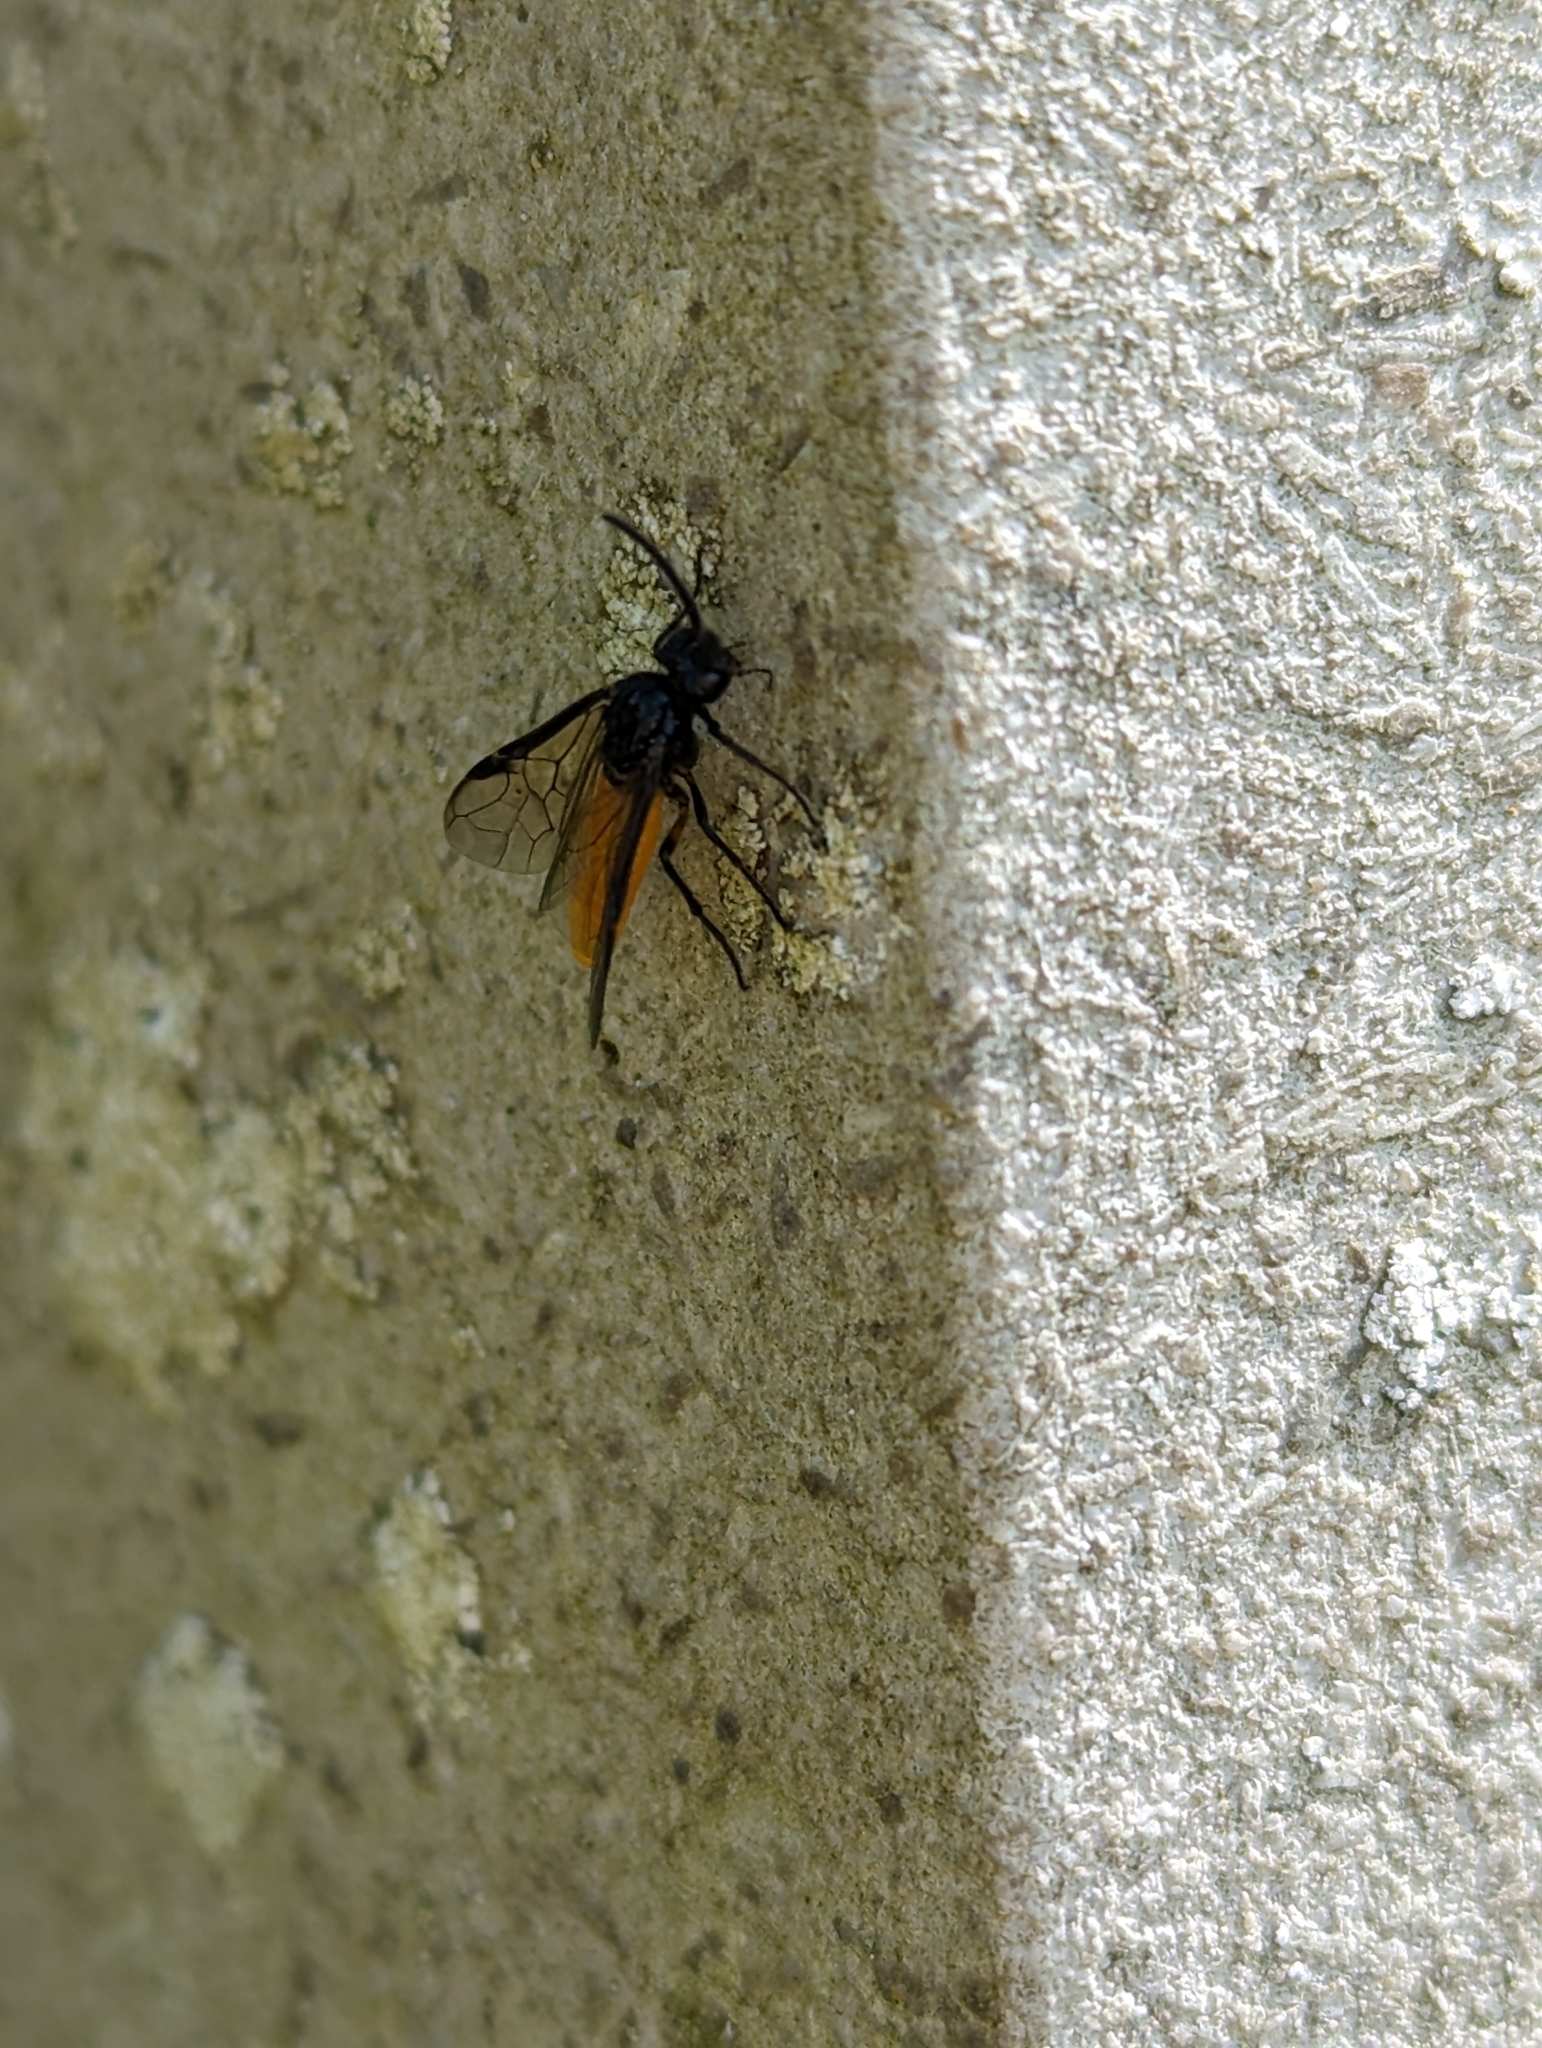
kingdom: Animalia
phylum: Arthropoda
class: Insecta
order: Hymenoptera
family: Argidae
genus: Arge
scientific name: Arge pagana
